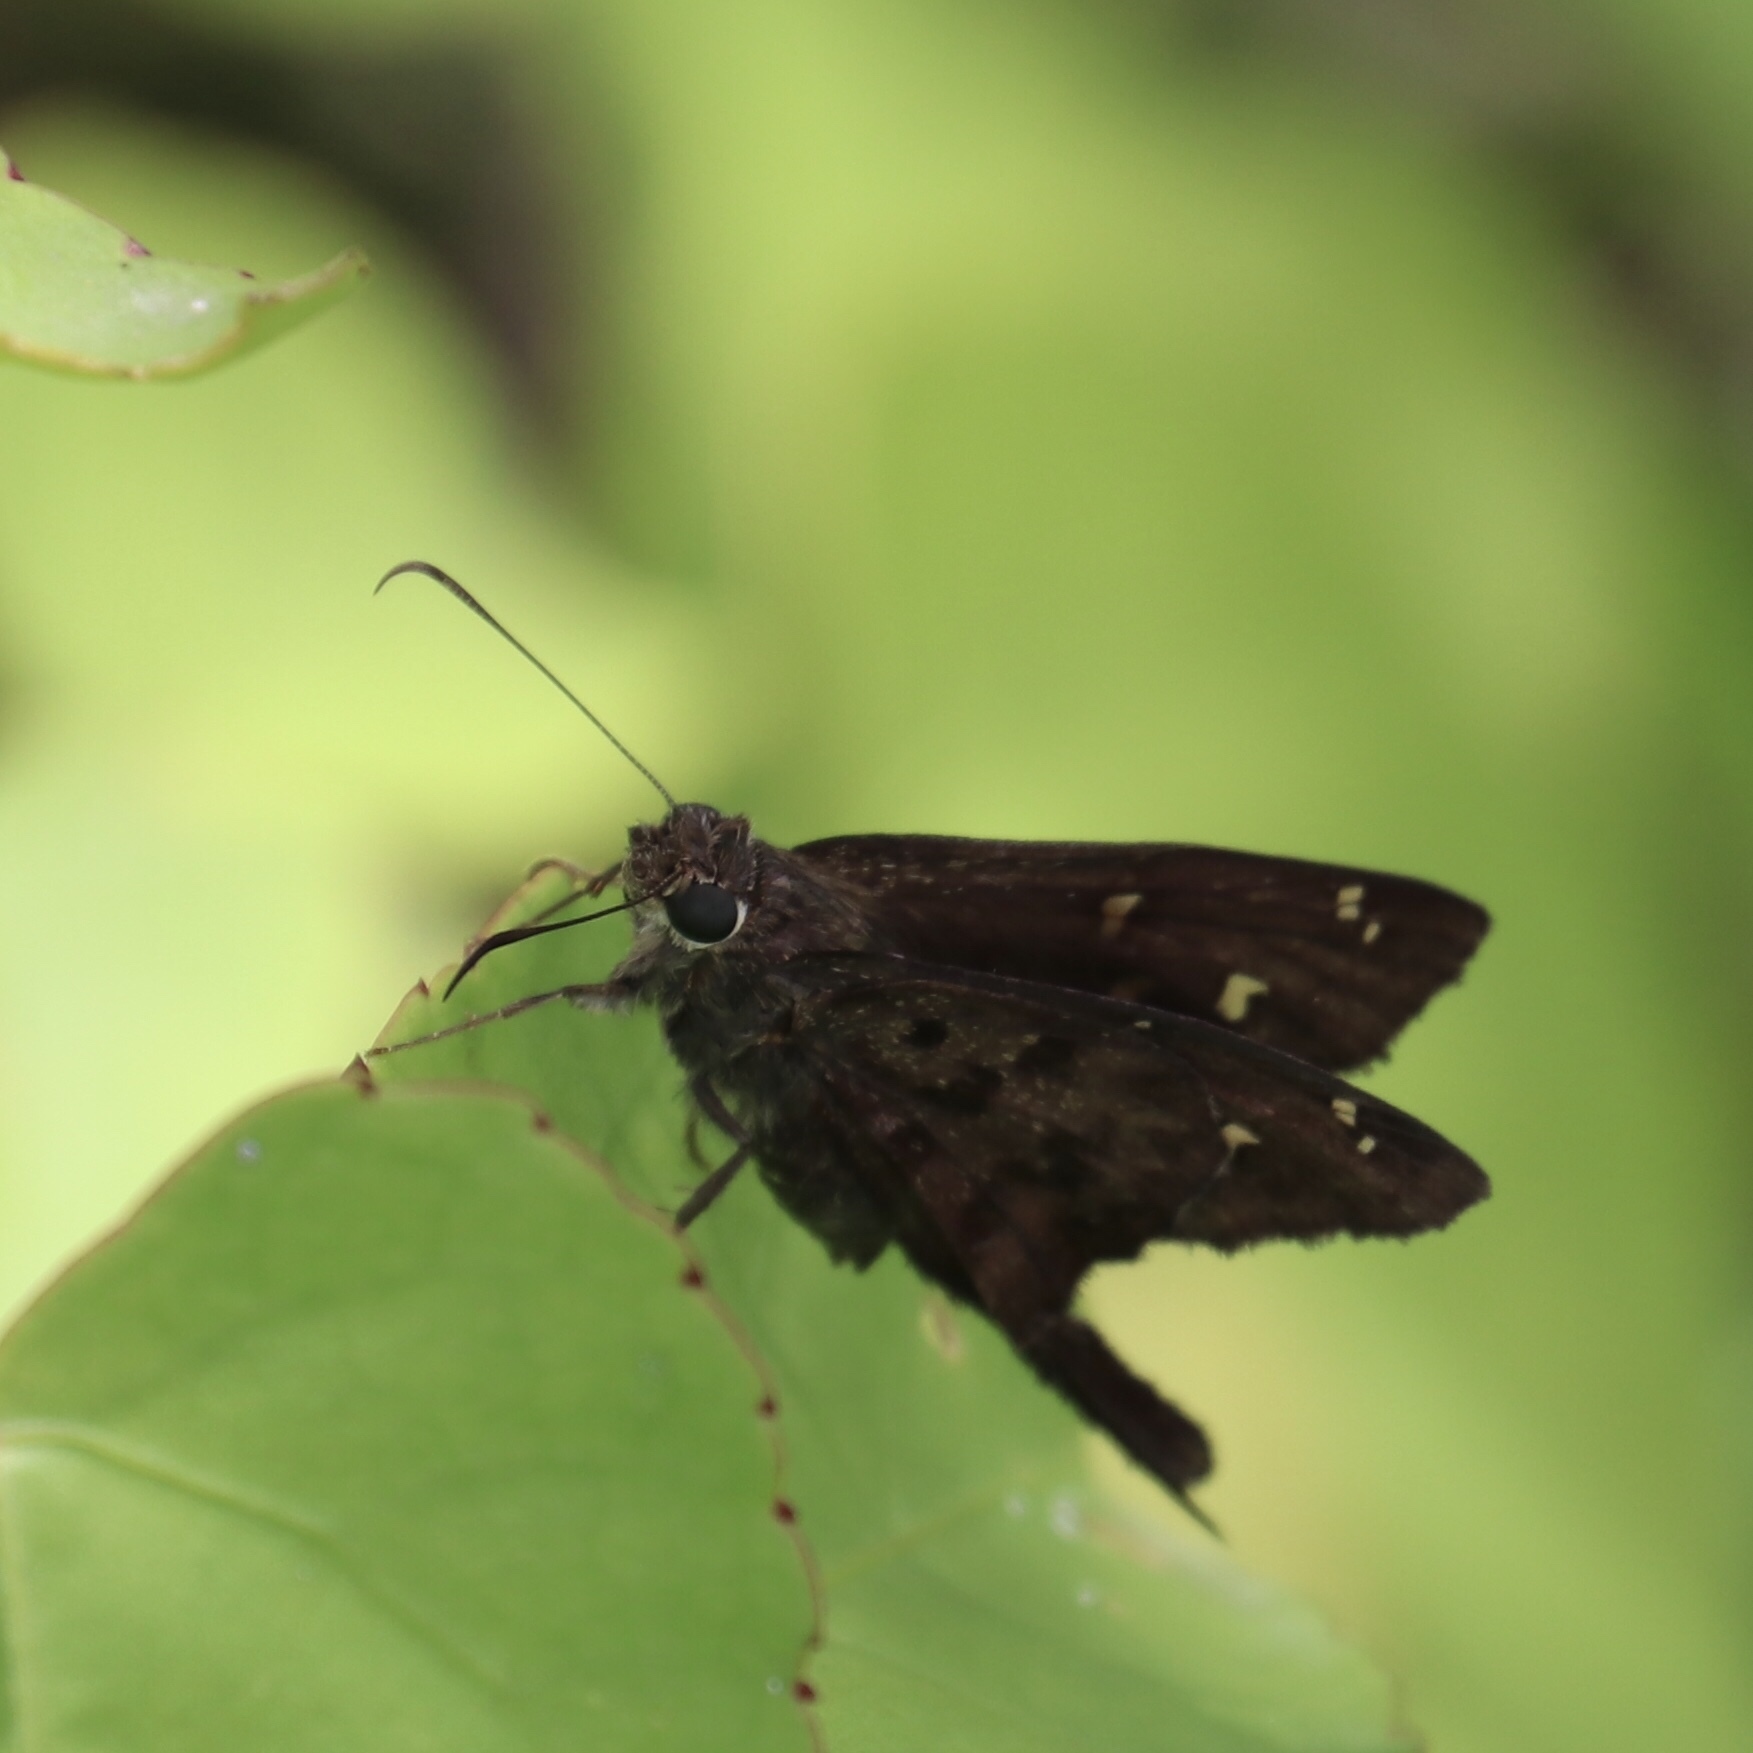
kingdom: Animalia
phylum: Arthropoda
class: Insecta
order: Lepidoptera
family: Hesperiidae
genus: Thorybes
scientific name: Thorybes
